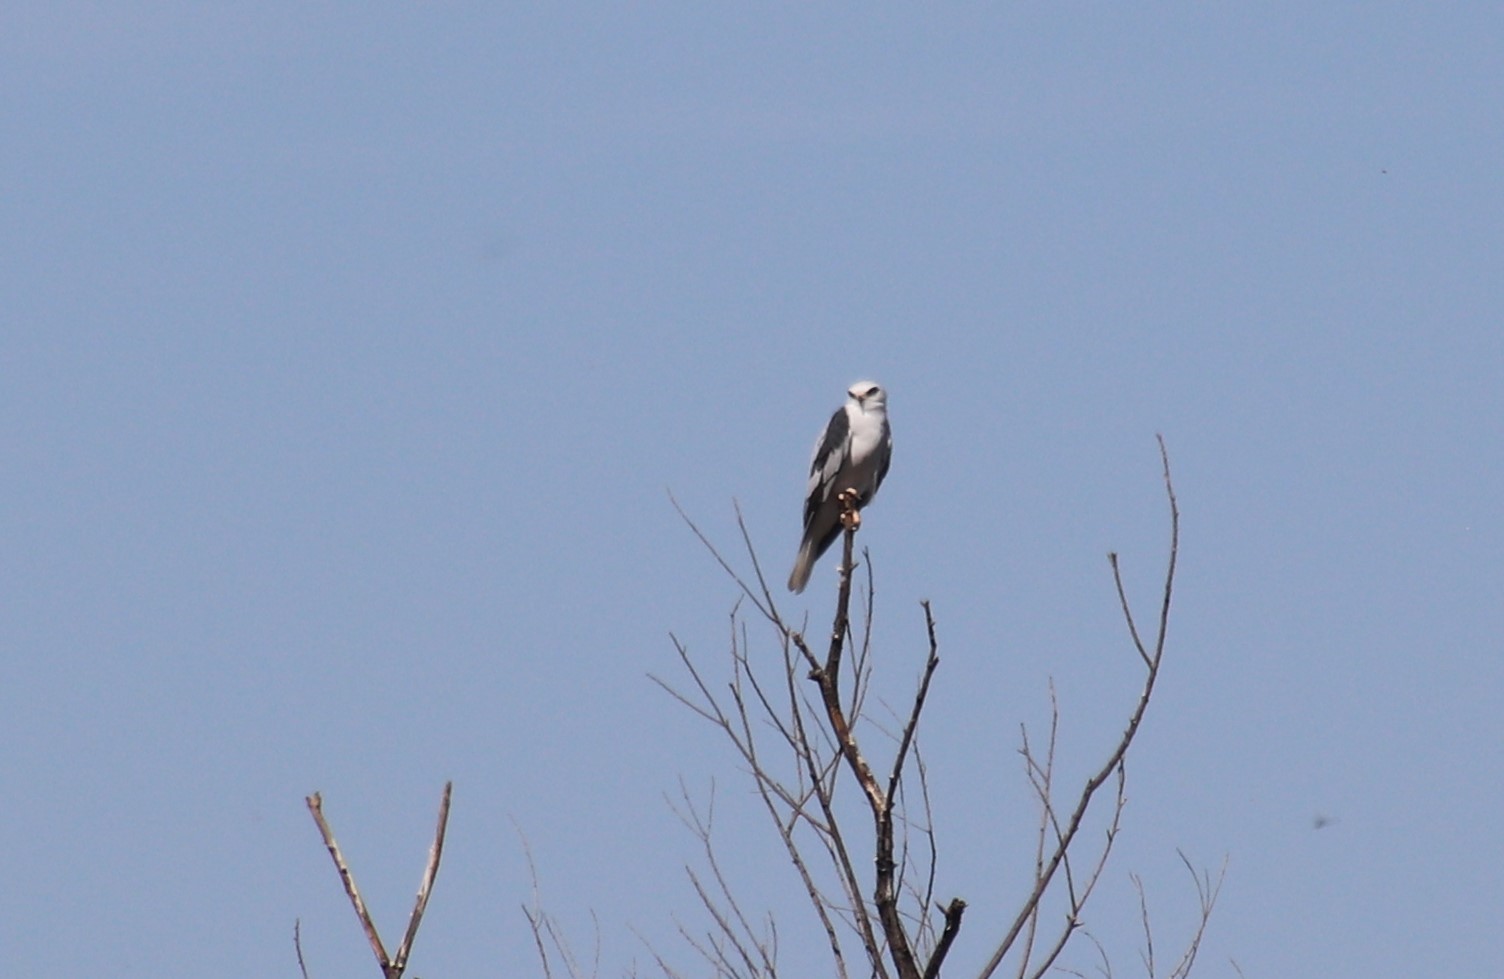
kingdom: Animalia
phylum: Chordata
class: Aves
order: Accipitriformes
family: Accipitridae
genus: Elanus
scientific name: Elanus leucurus
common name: White-tailed kite
